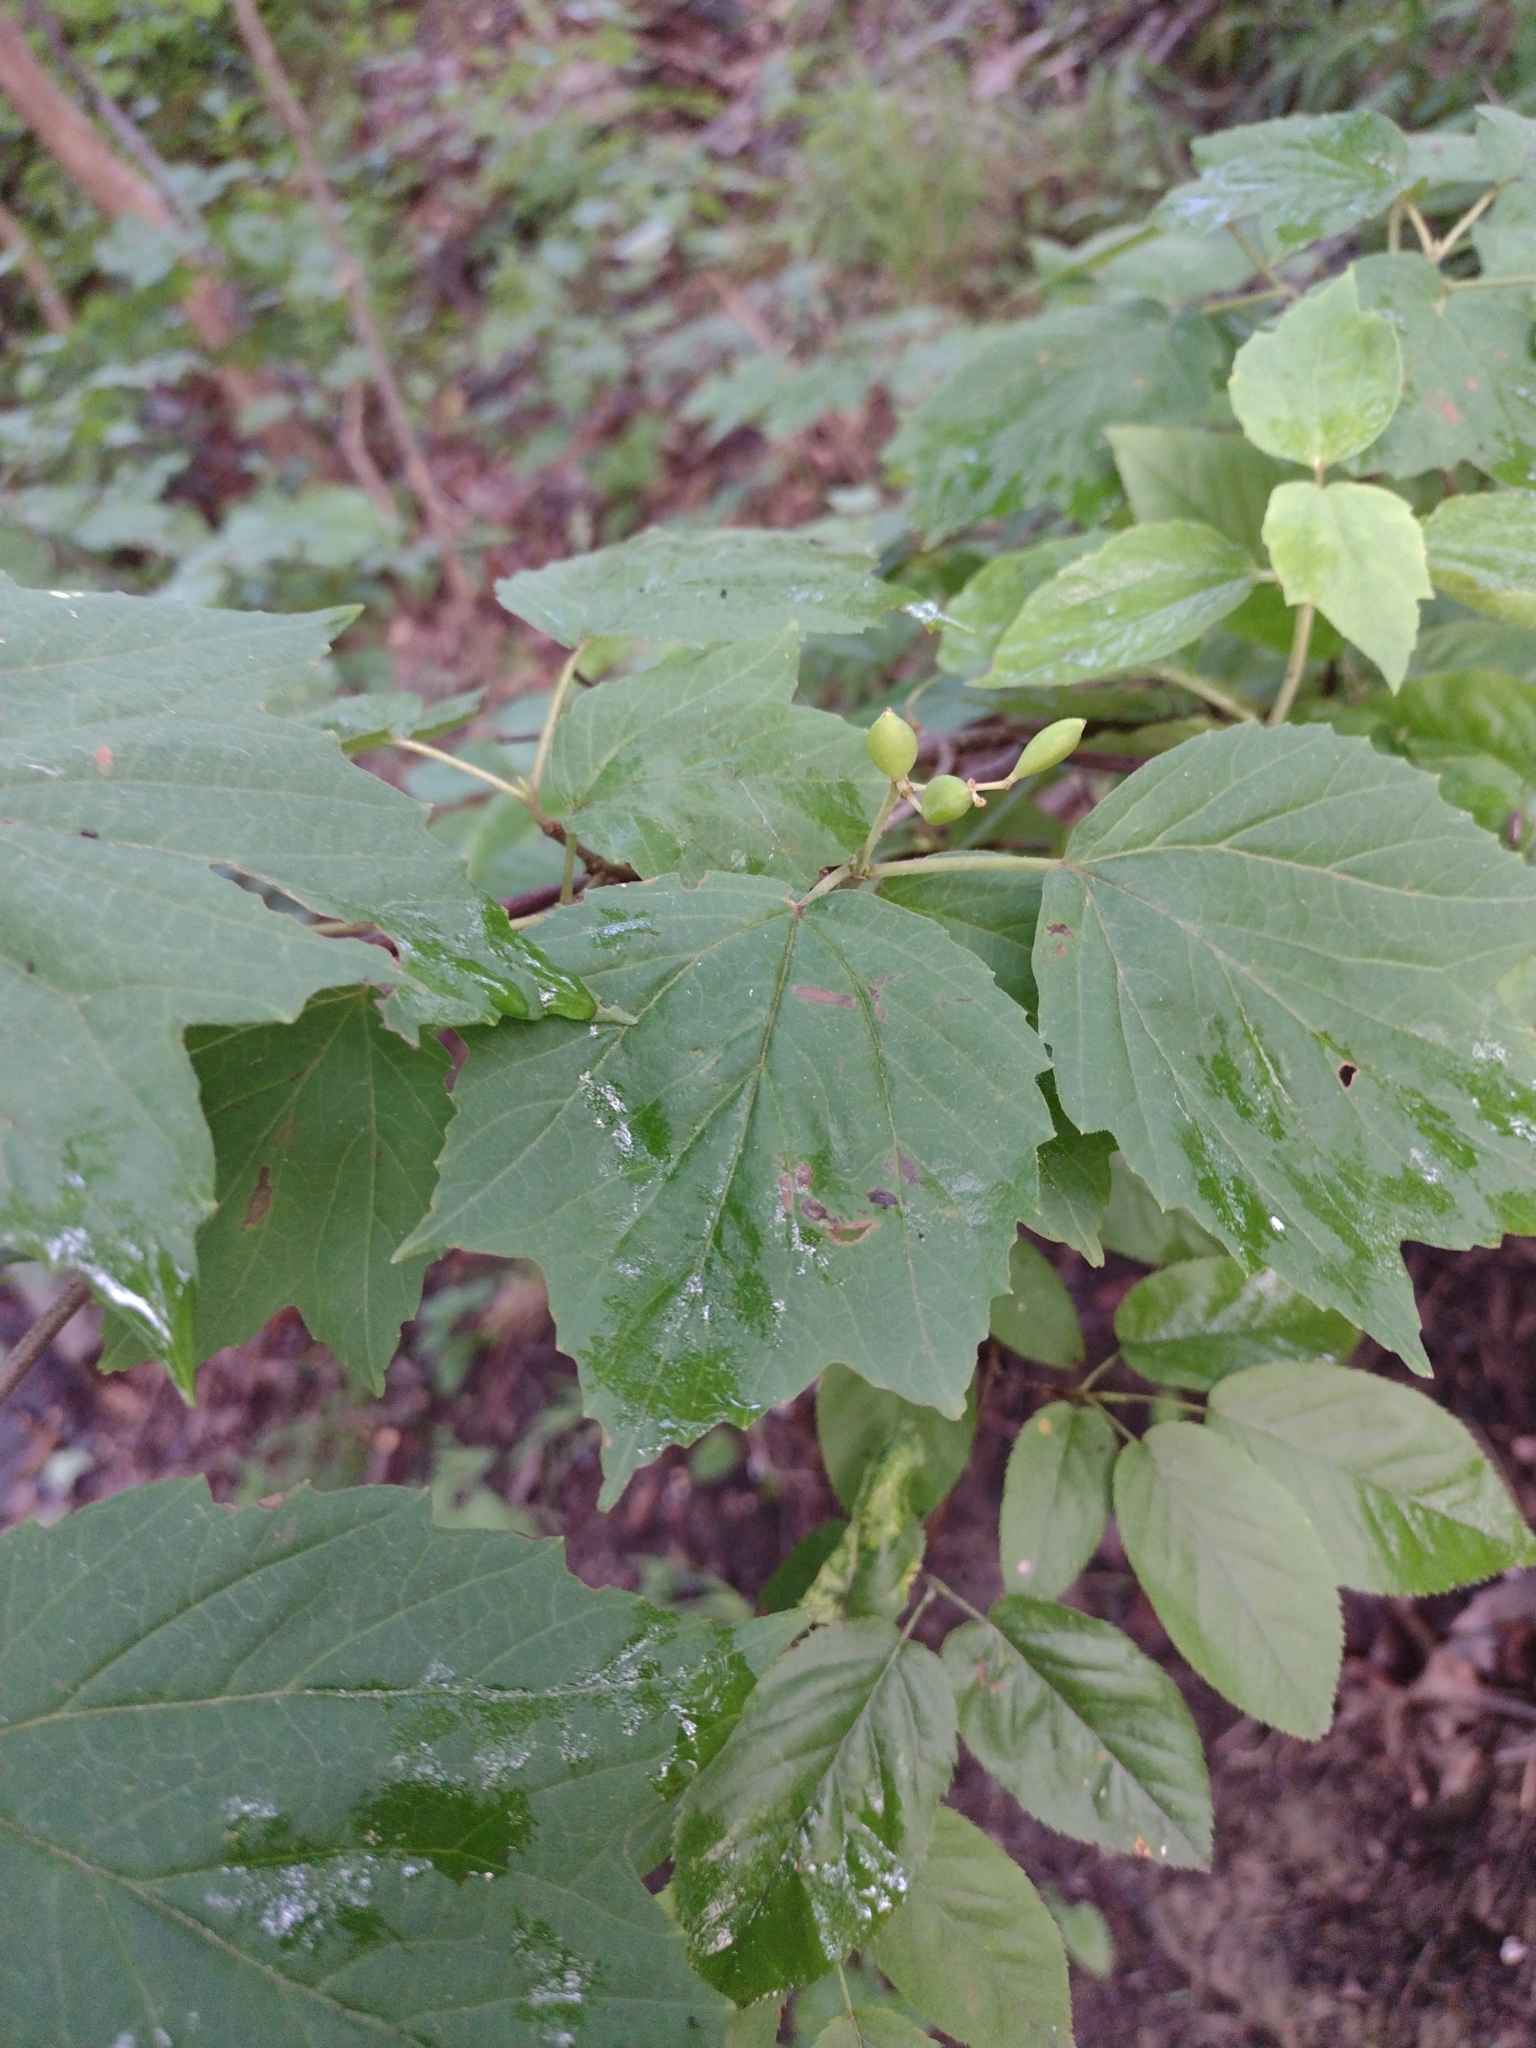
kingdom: Plantae
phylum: Tracheophyta
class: Magnoliopsida
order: Dipsacales
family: Viburnaceae
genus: Viburnum
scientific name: Viburnum acerifolium
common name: Dockmackie
